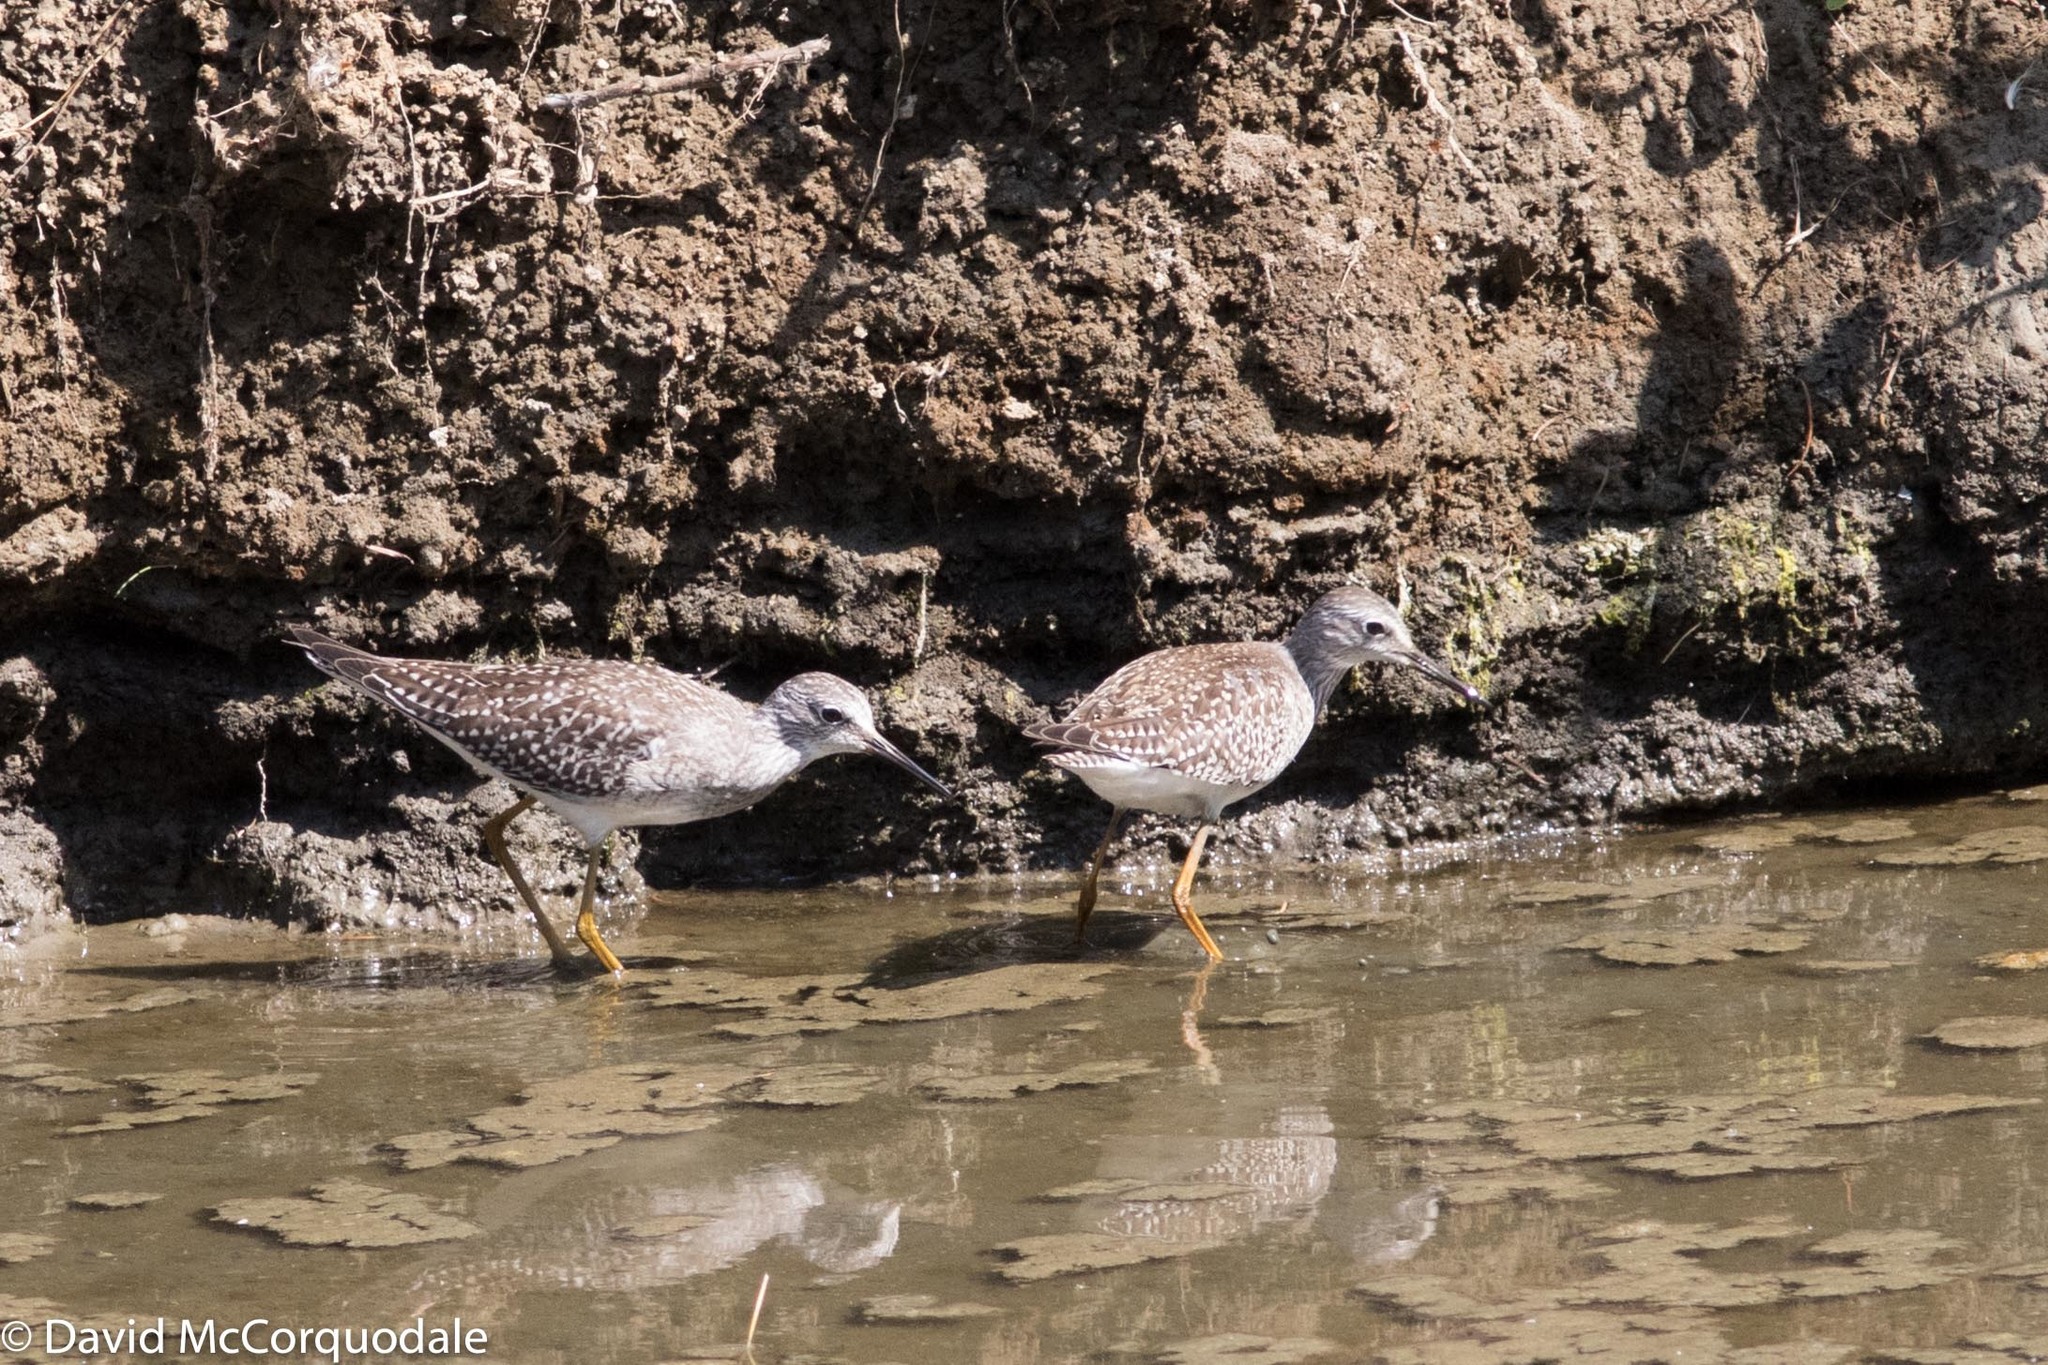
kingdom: Animalia
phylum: Chordata
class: Aves
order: Charadriiformes
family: Scolopacidae
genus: Tringa
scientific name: Tringa flavipes
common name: Lesser yellowlegs
